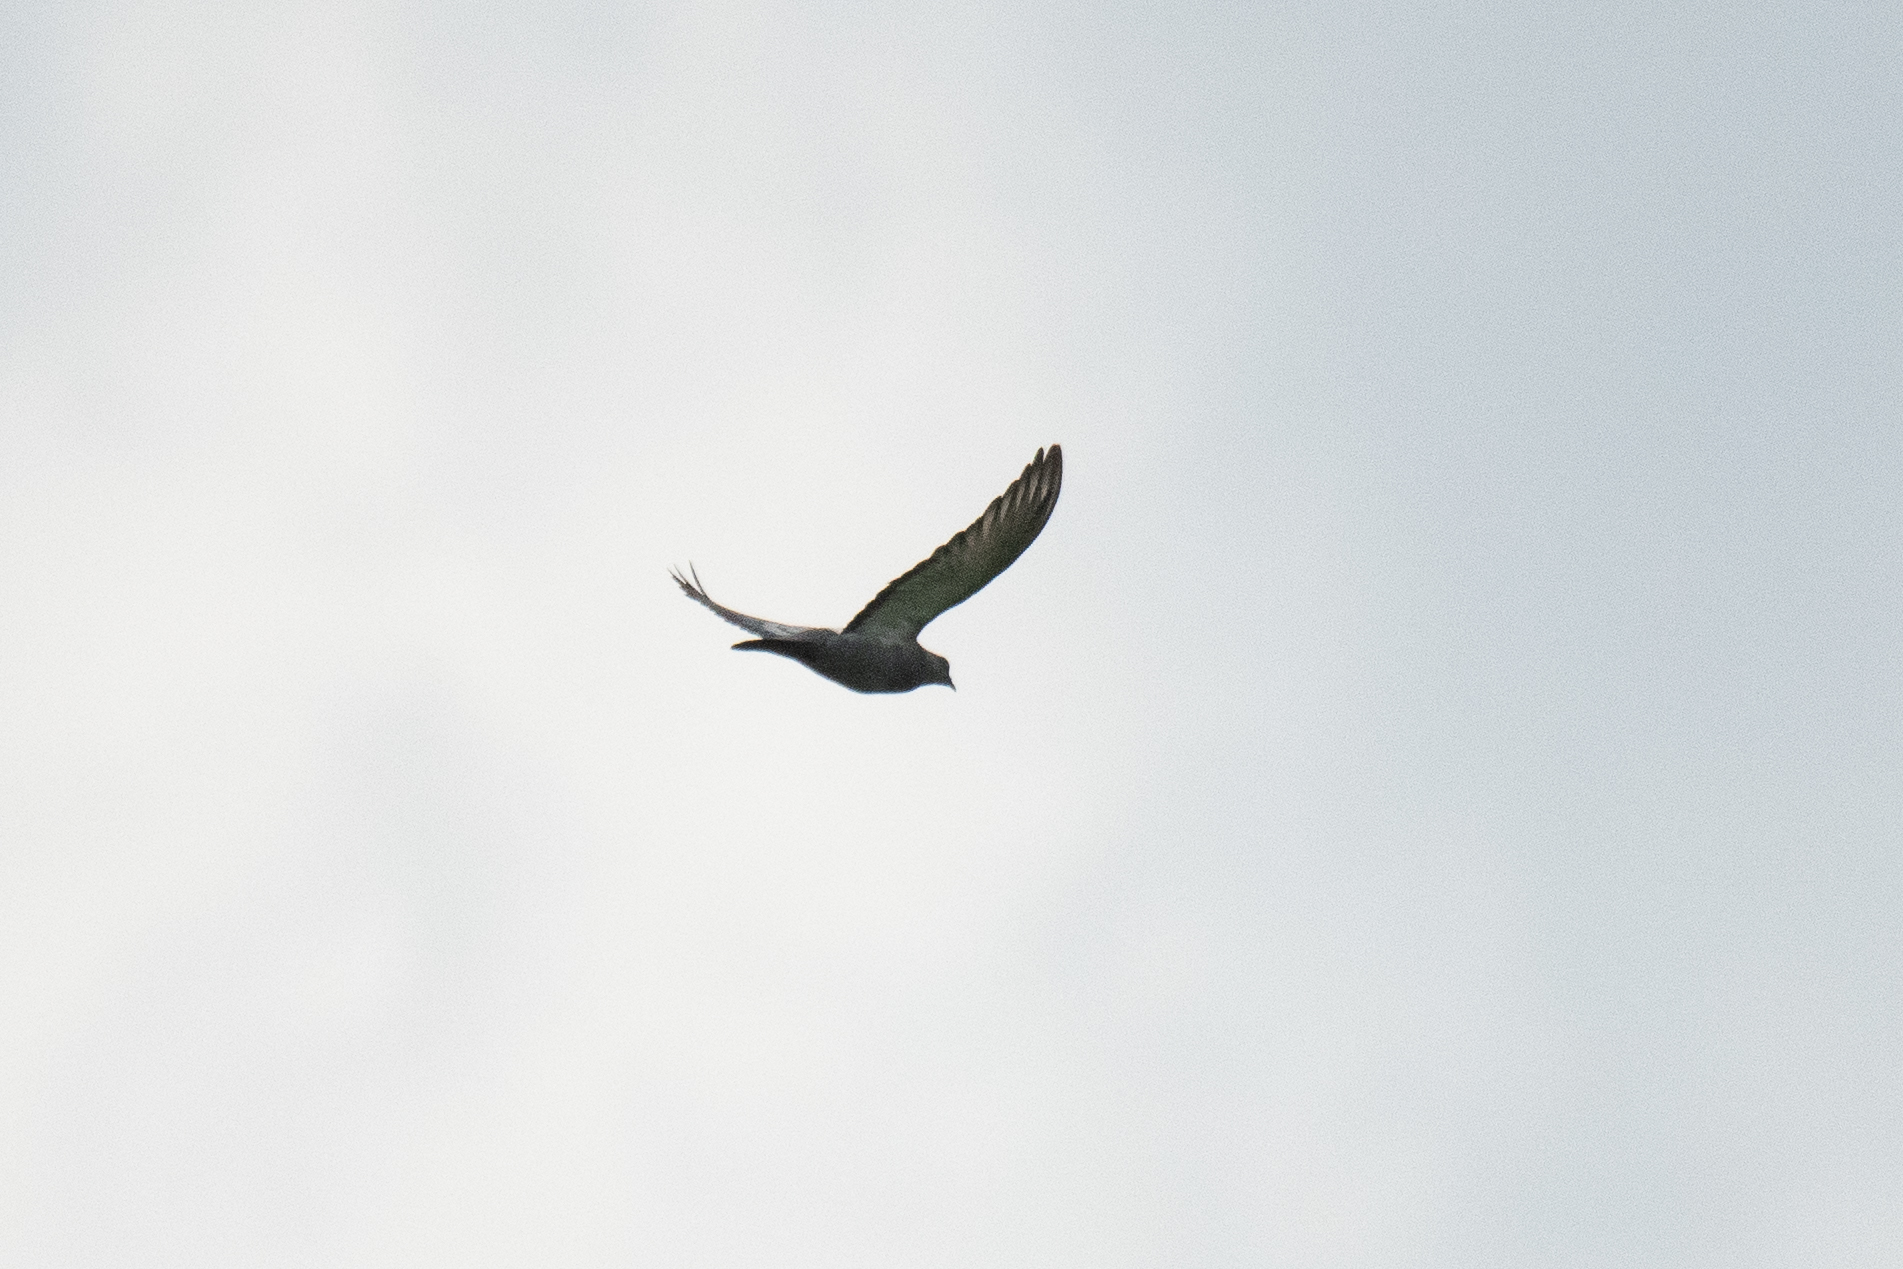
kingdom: Animalia
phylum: Chordata
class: Aves
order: Columbiformes
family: Columbidae
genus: Columba
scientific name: Columba livia
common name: Rock pigeon
